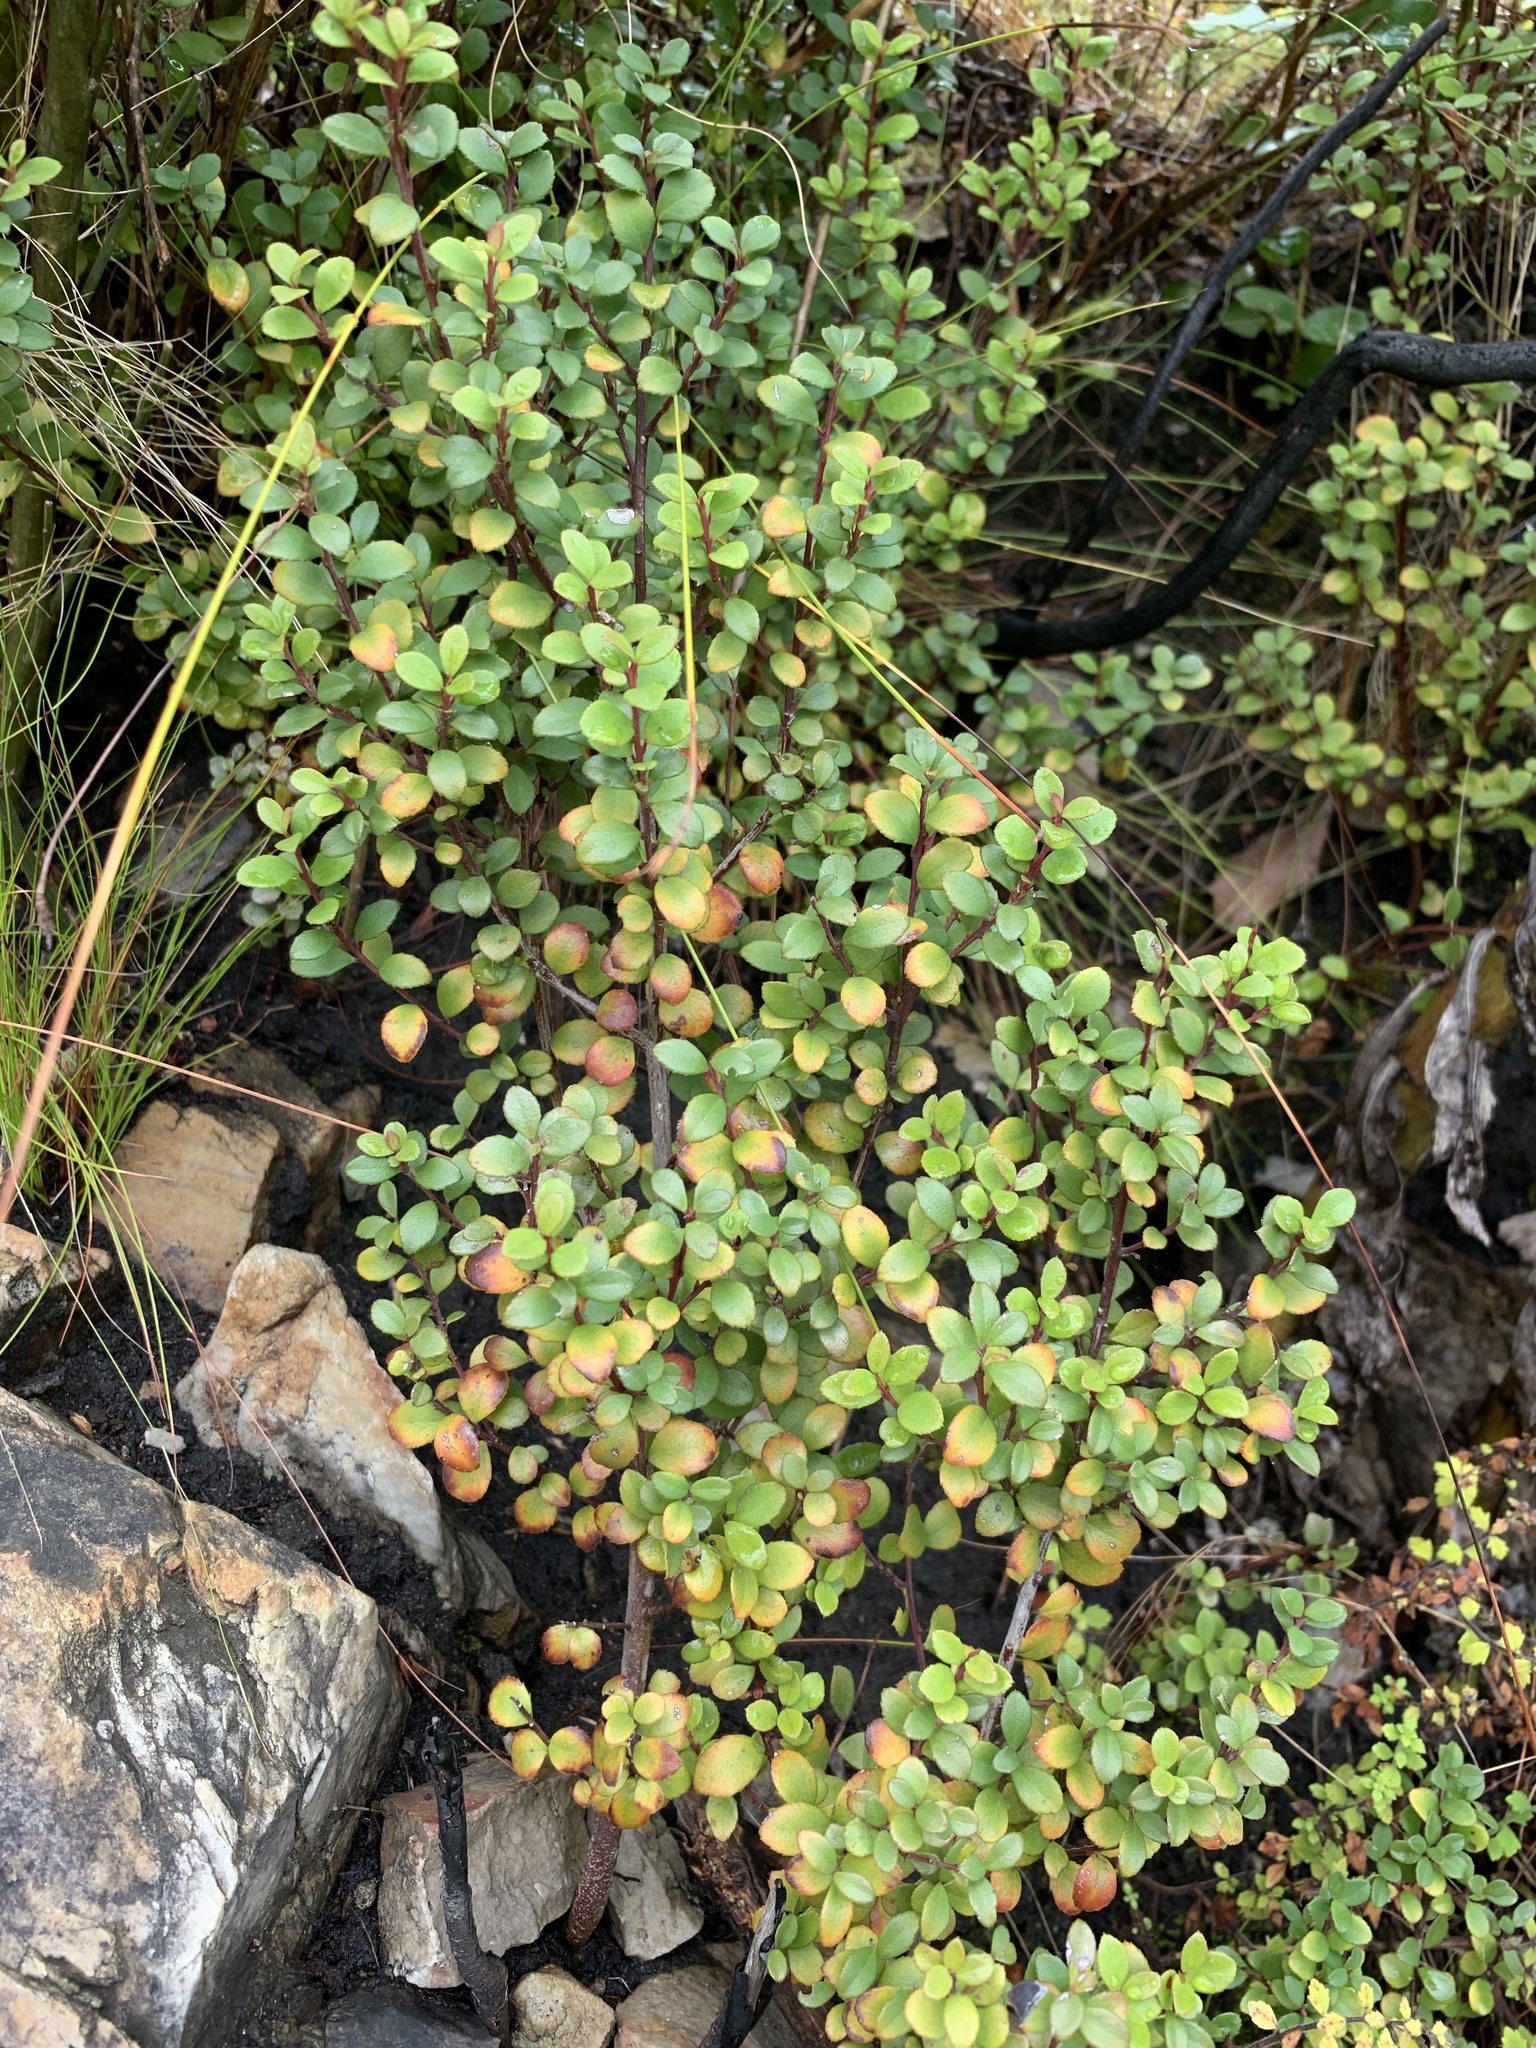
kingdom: Plantae
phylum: Tracheophyta
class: Magnoliopsida
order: Ericales
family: Primulaceae
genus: Myrsine
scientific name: Myrsine africana
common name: African-boxwood
